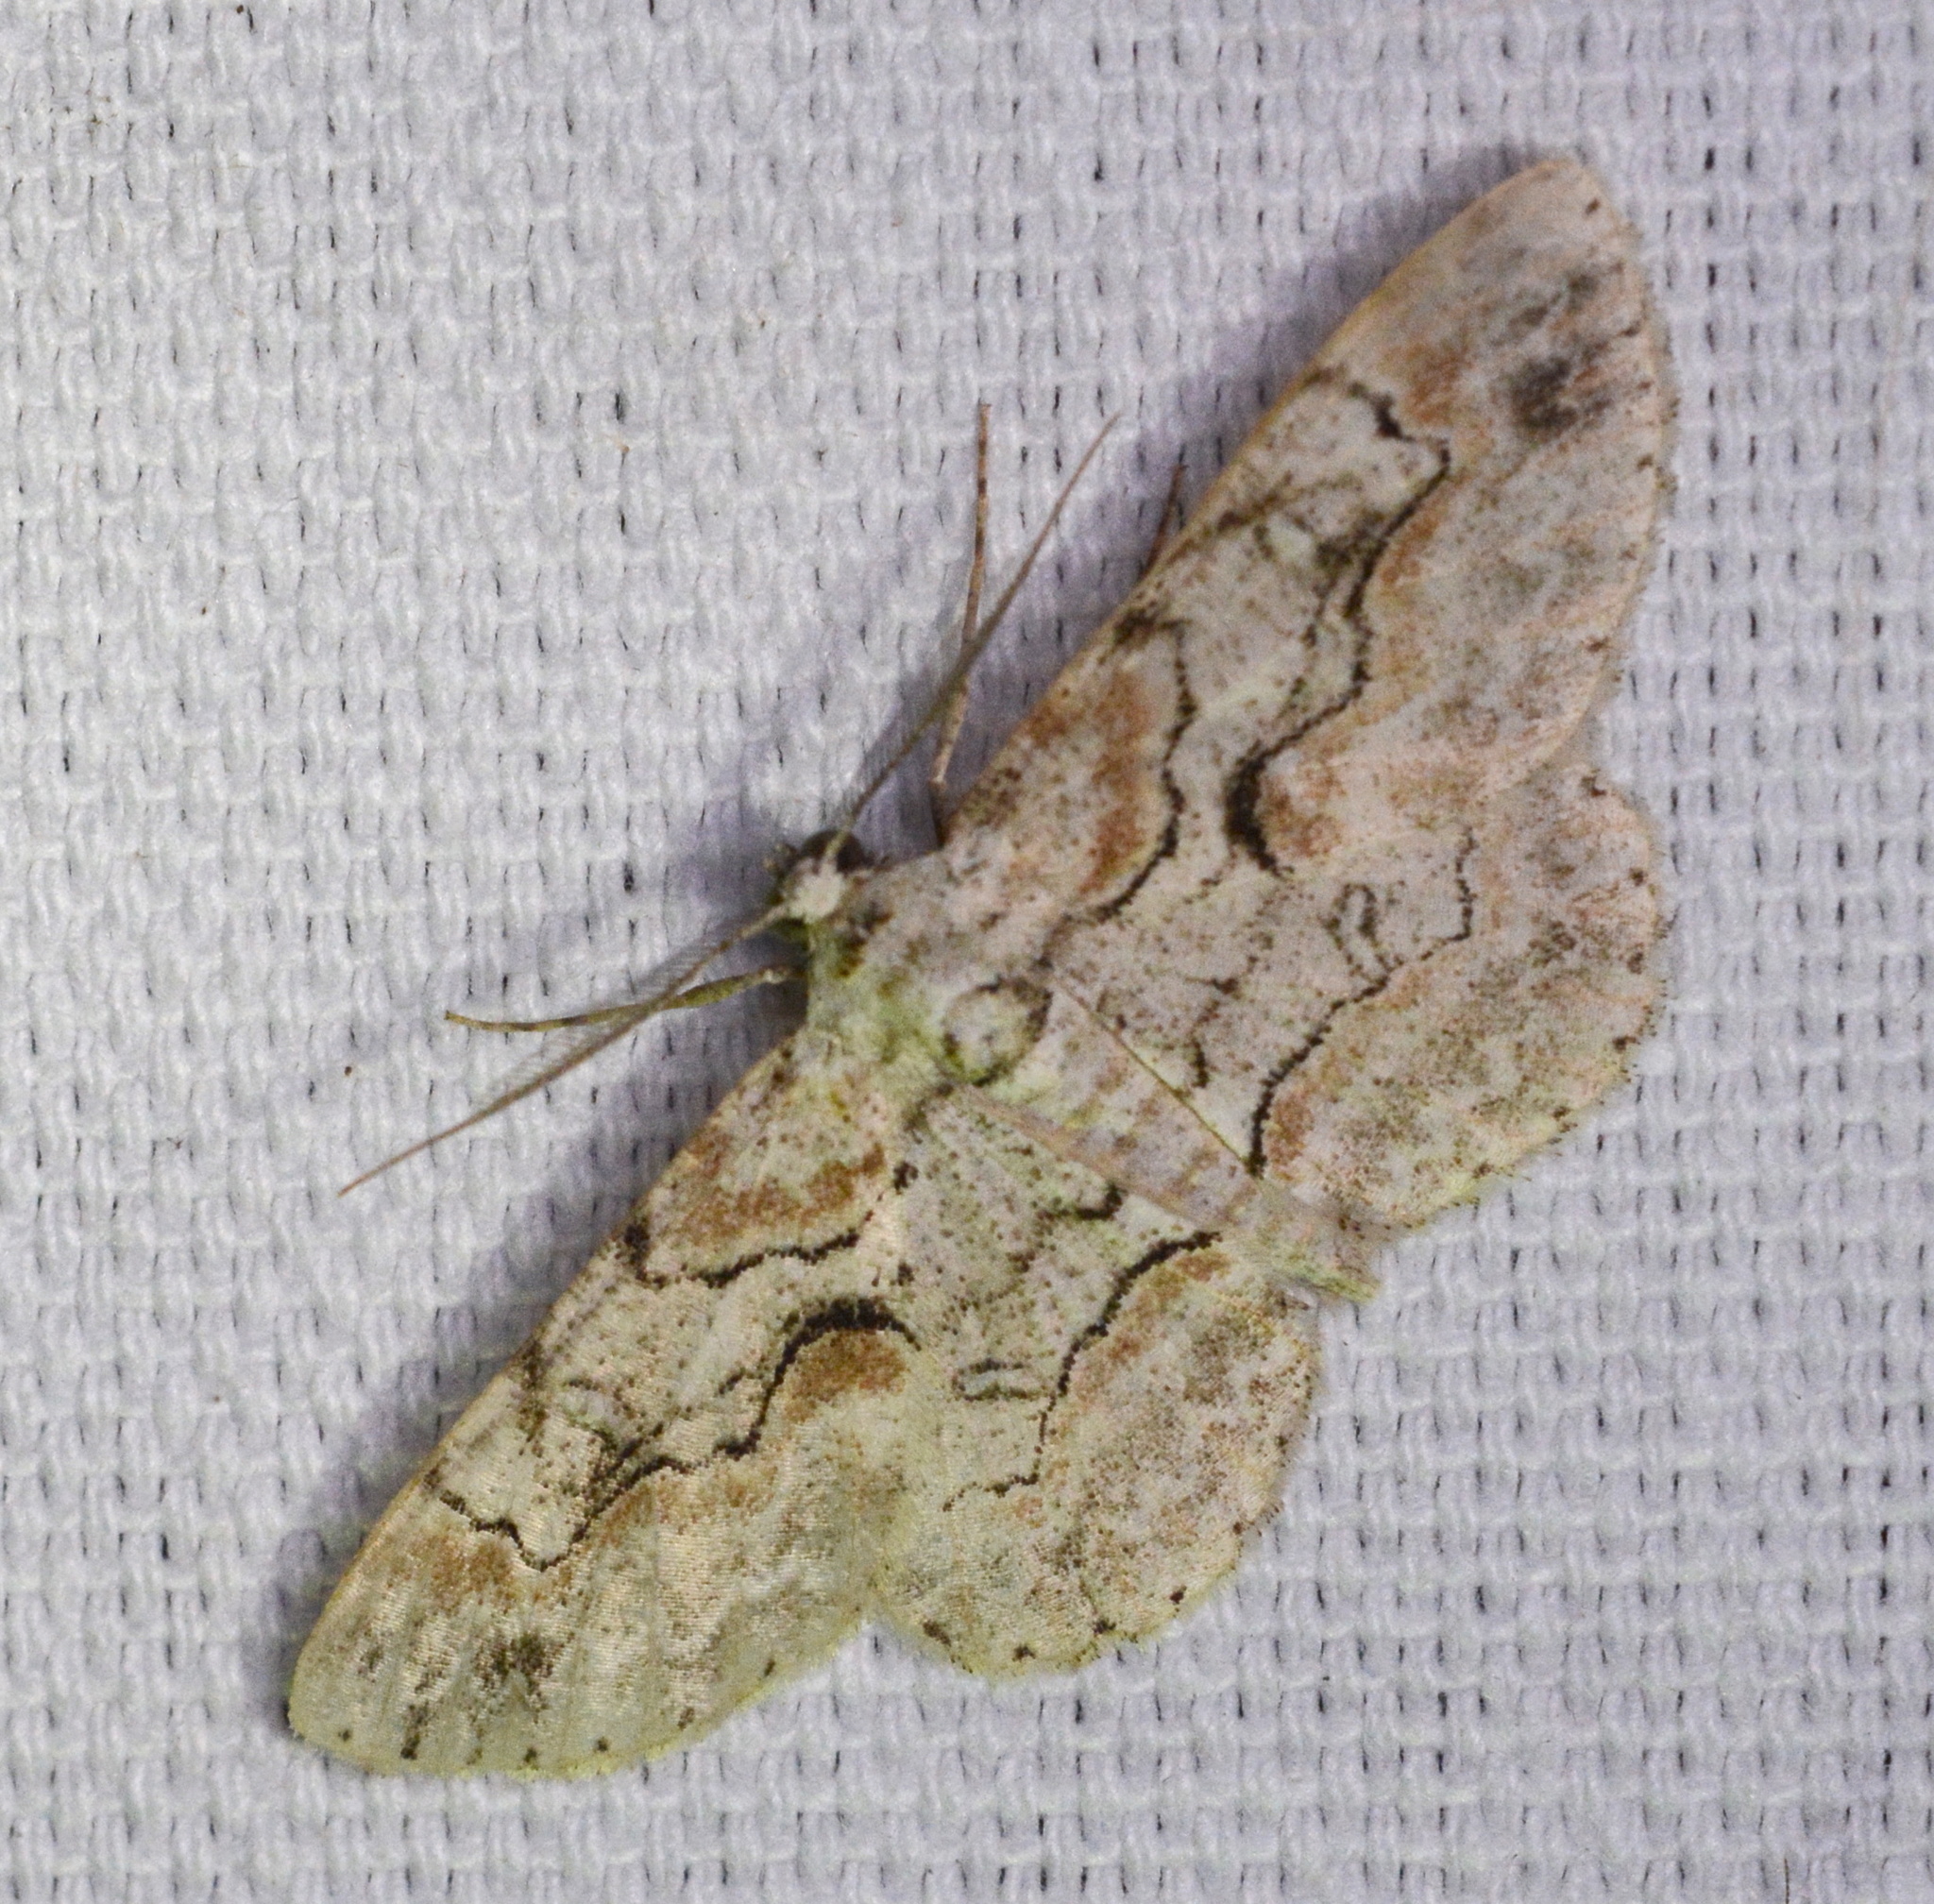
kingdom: Animalia
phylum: Arthropoda
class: Insecta
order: Lepidoptera
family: Geometridae
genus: Iridopsis
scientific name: Iridopsis defectaria
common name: Brown-shaded gray
